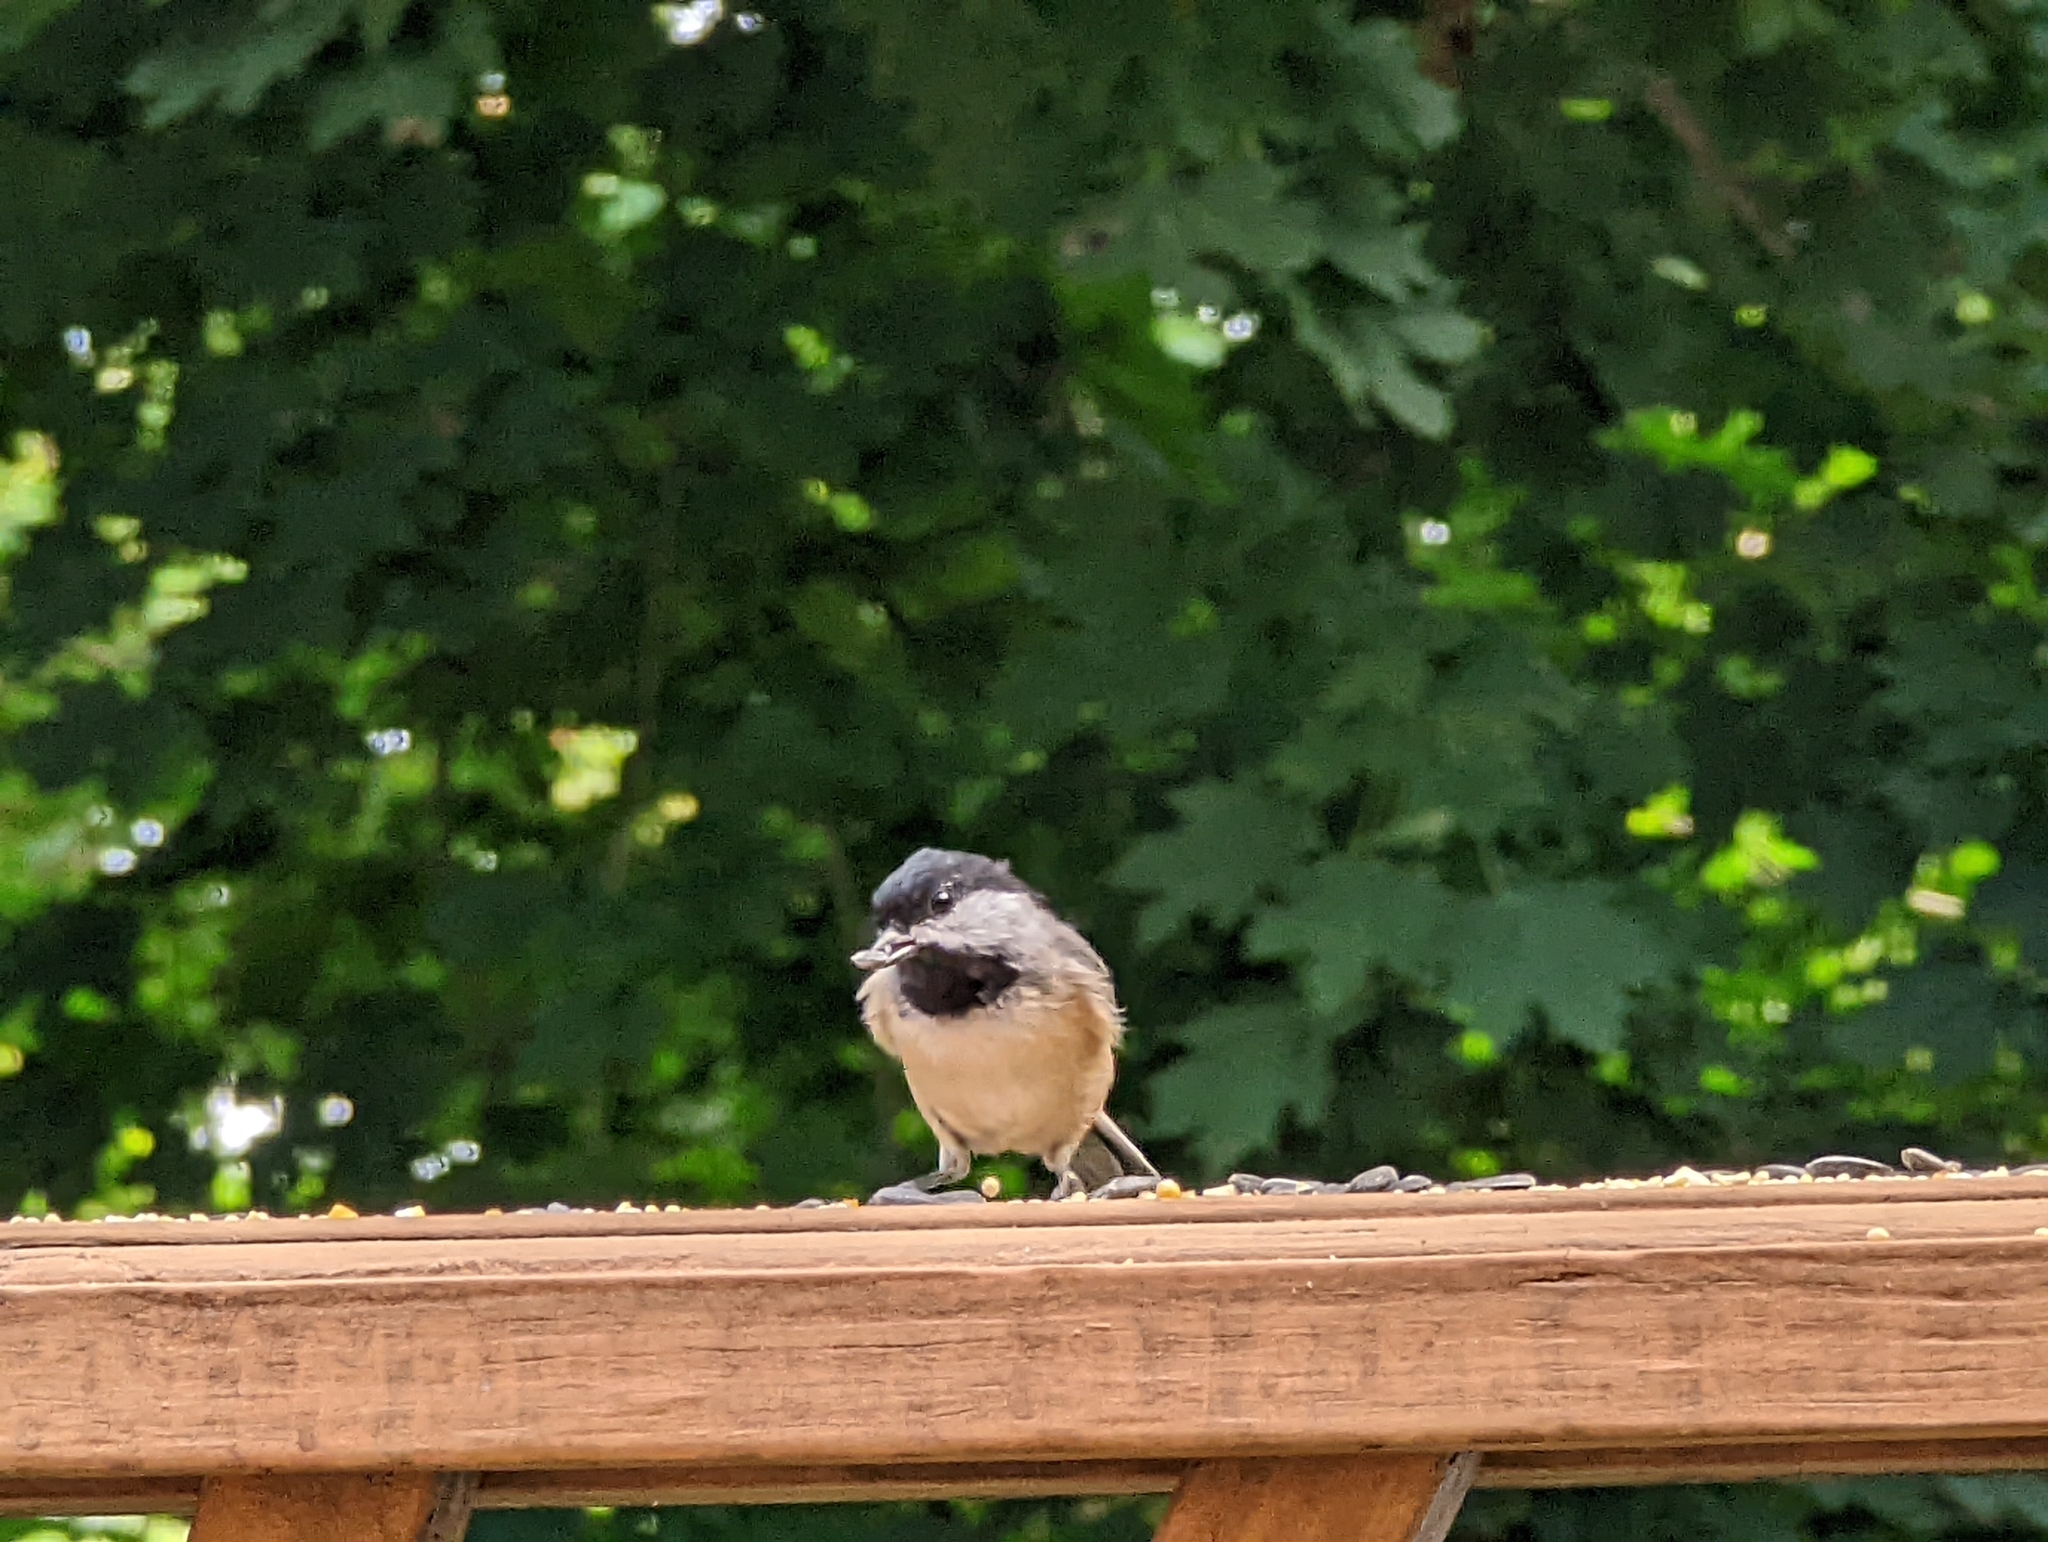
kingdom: Animalia
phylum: Chordata
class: Aves
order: Passeriformes
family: Paridae
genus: Poecile
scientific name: Poecile carolinensis
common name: Carolina chickadee
